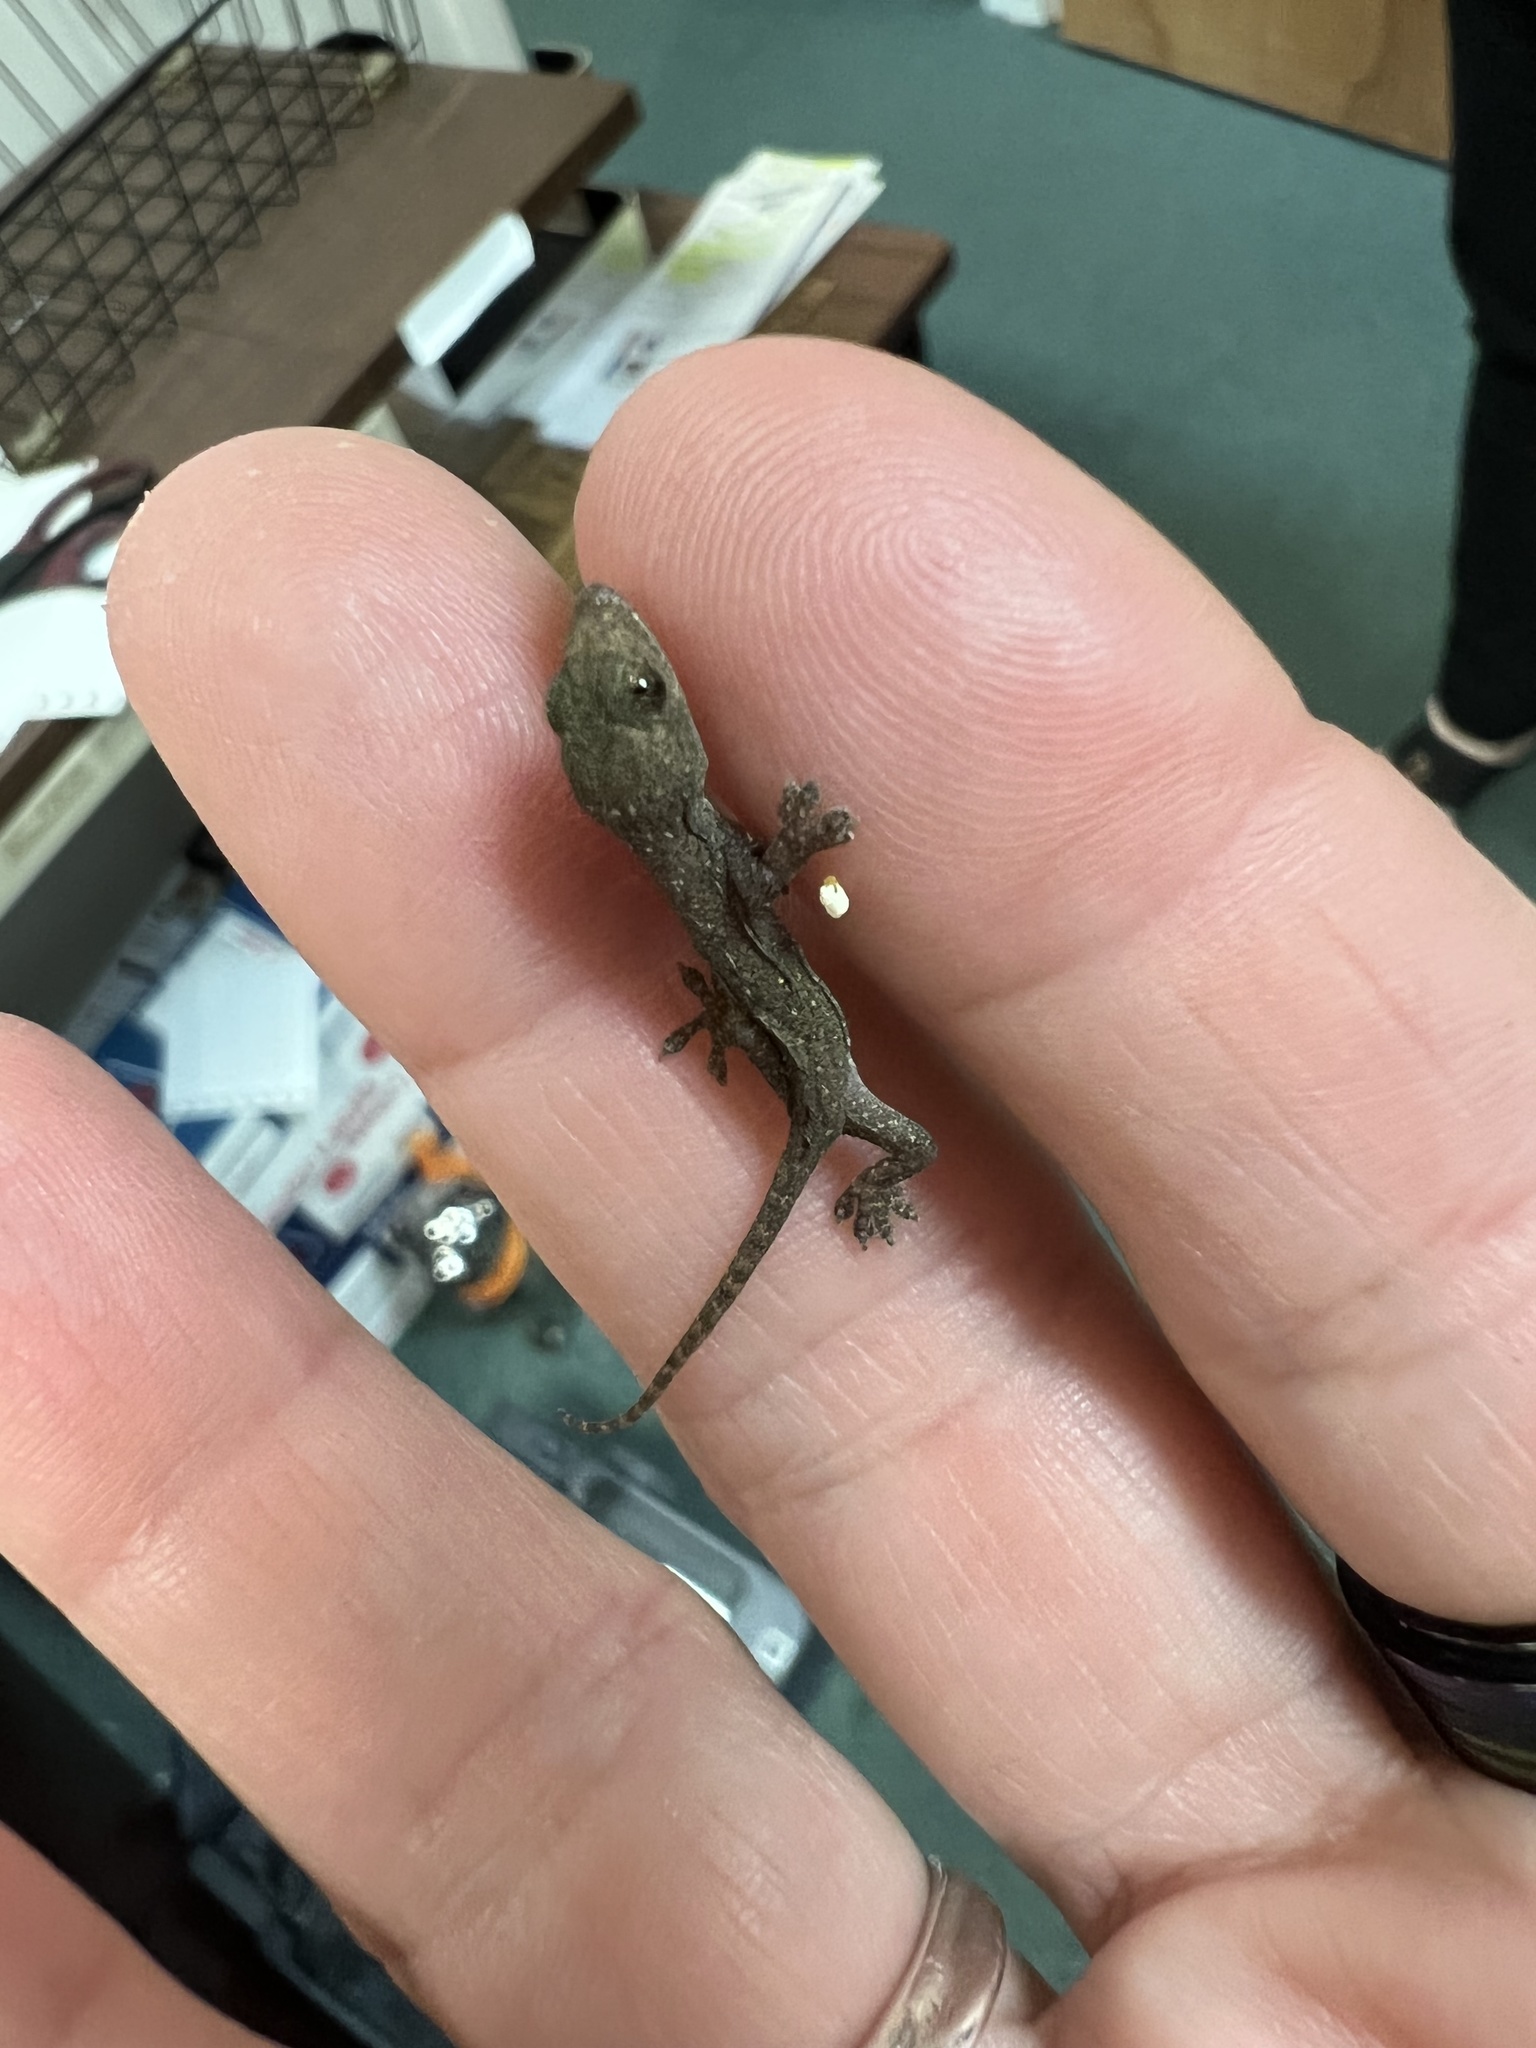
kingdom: Animalia
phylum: Chordata
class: Squamata
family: Gekkonidae
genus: Hemidactylus
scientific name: Hemidactylus garnotii
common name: Indo-pacific gecko
